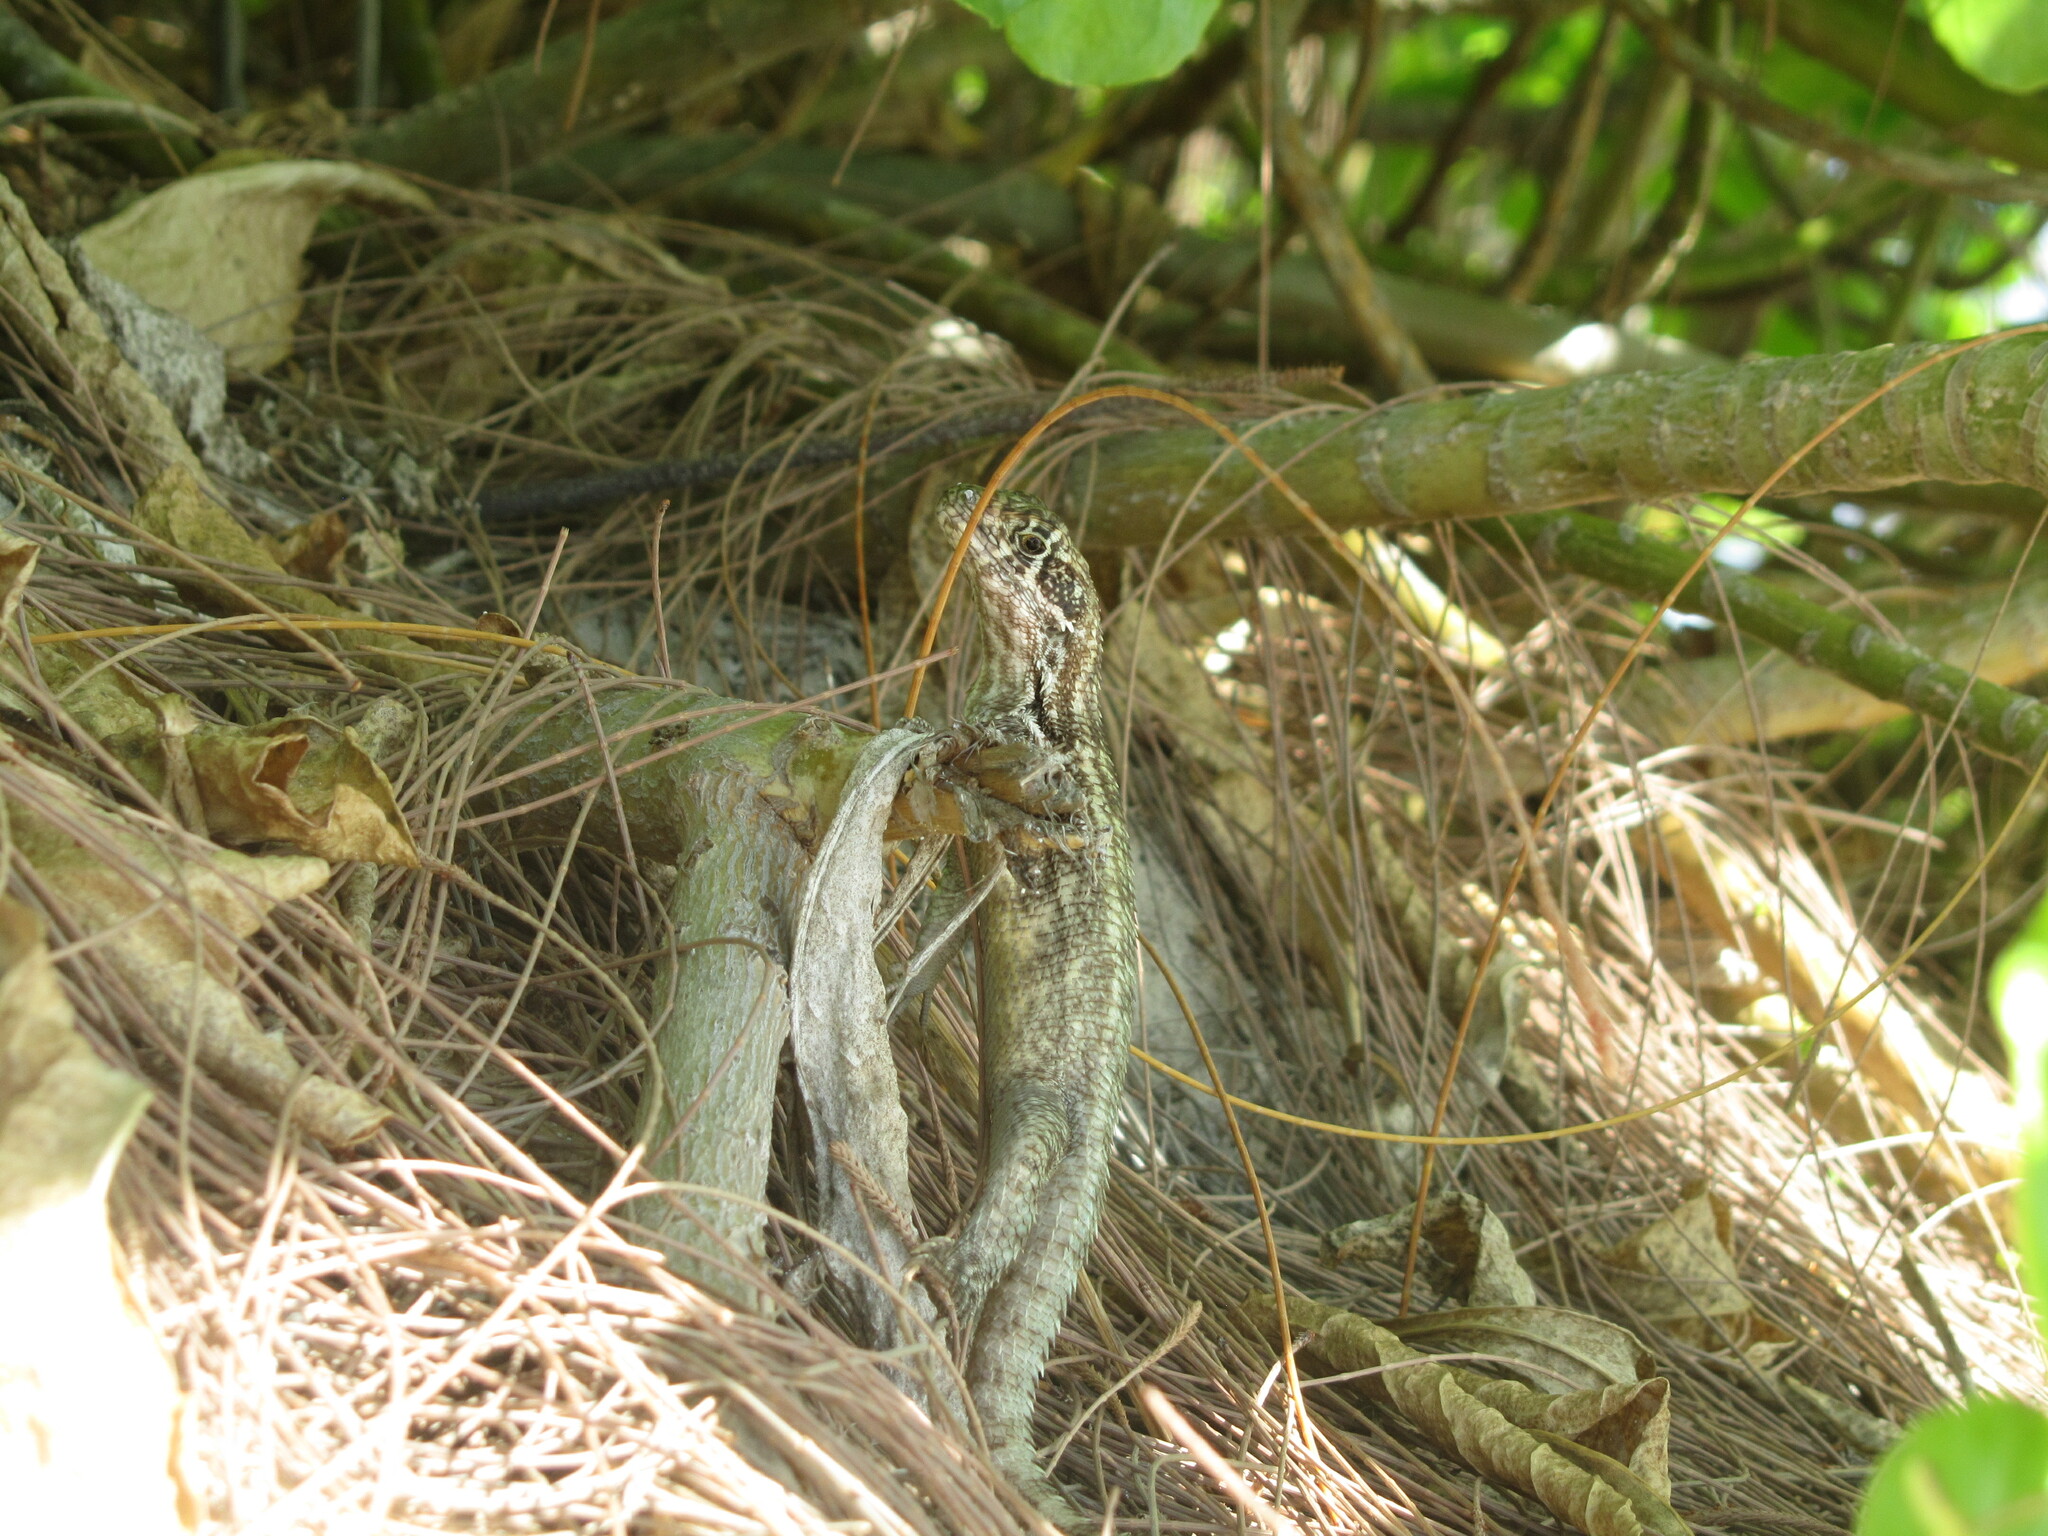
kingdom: Animalia
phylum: Chordata
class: Squamata
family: Leiocephalidae
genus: Leiocephalus
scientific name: Leiocephalus varius
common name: Cayman curlytail
